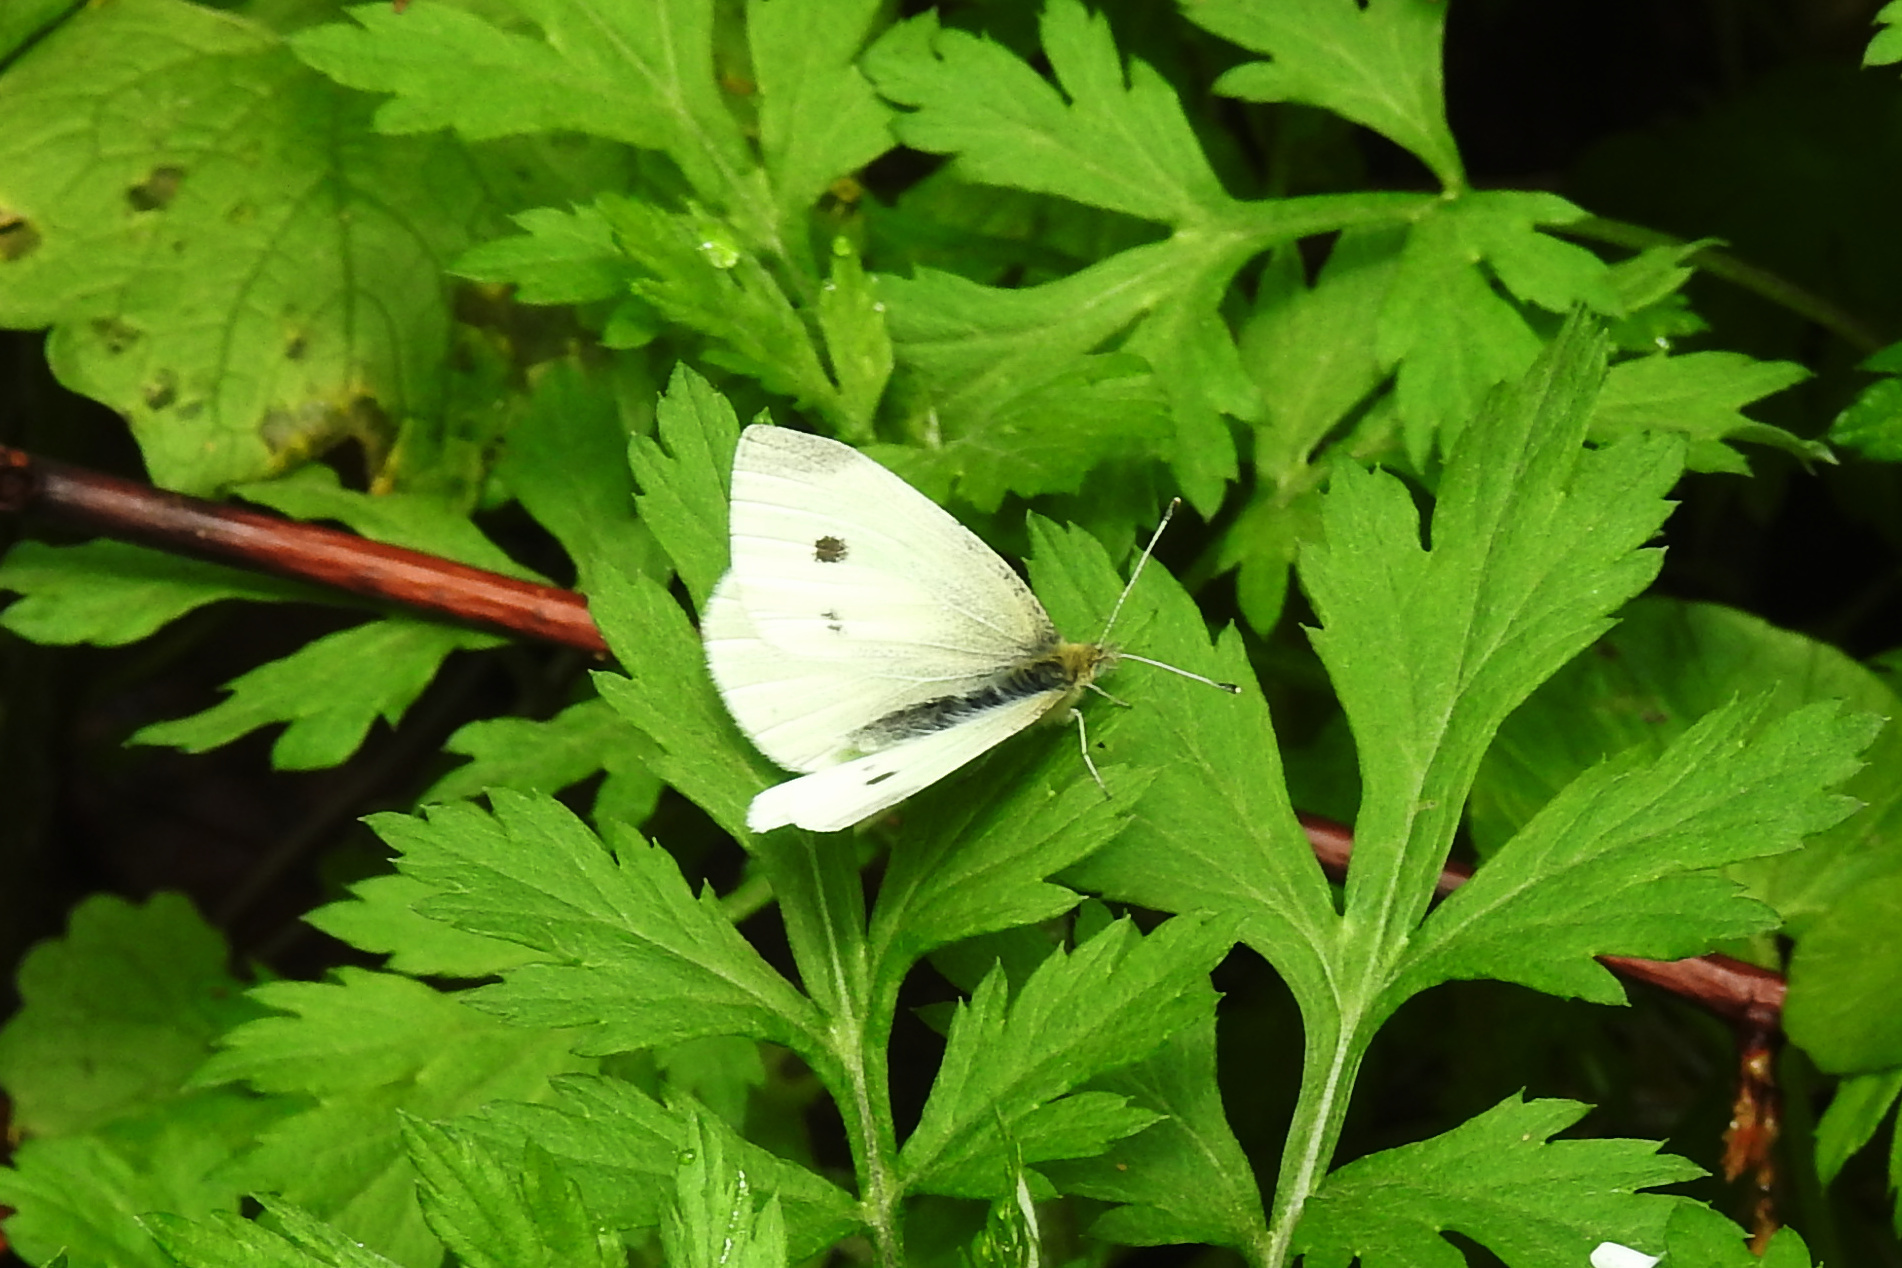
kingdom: Animalia
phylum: Arthropoda
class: Insecta
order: Lepidoptera
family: Pieridae
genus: Pieris
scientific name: Pieris rapae
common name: Small white
